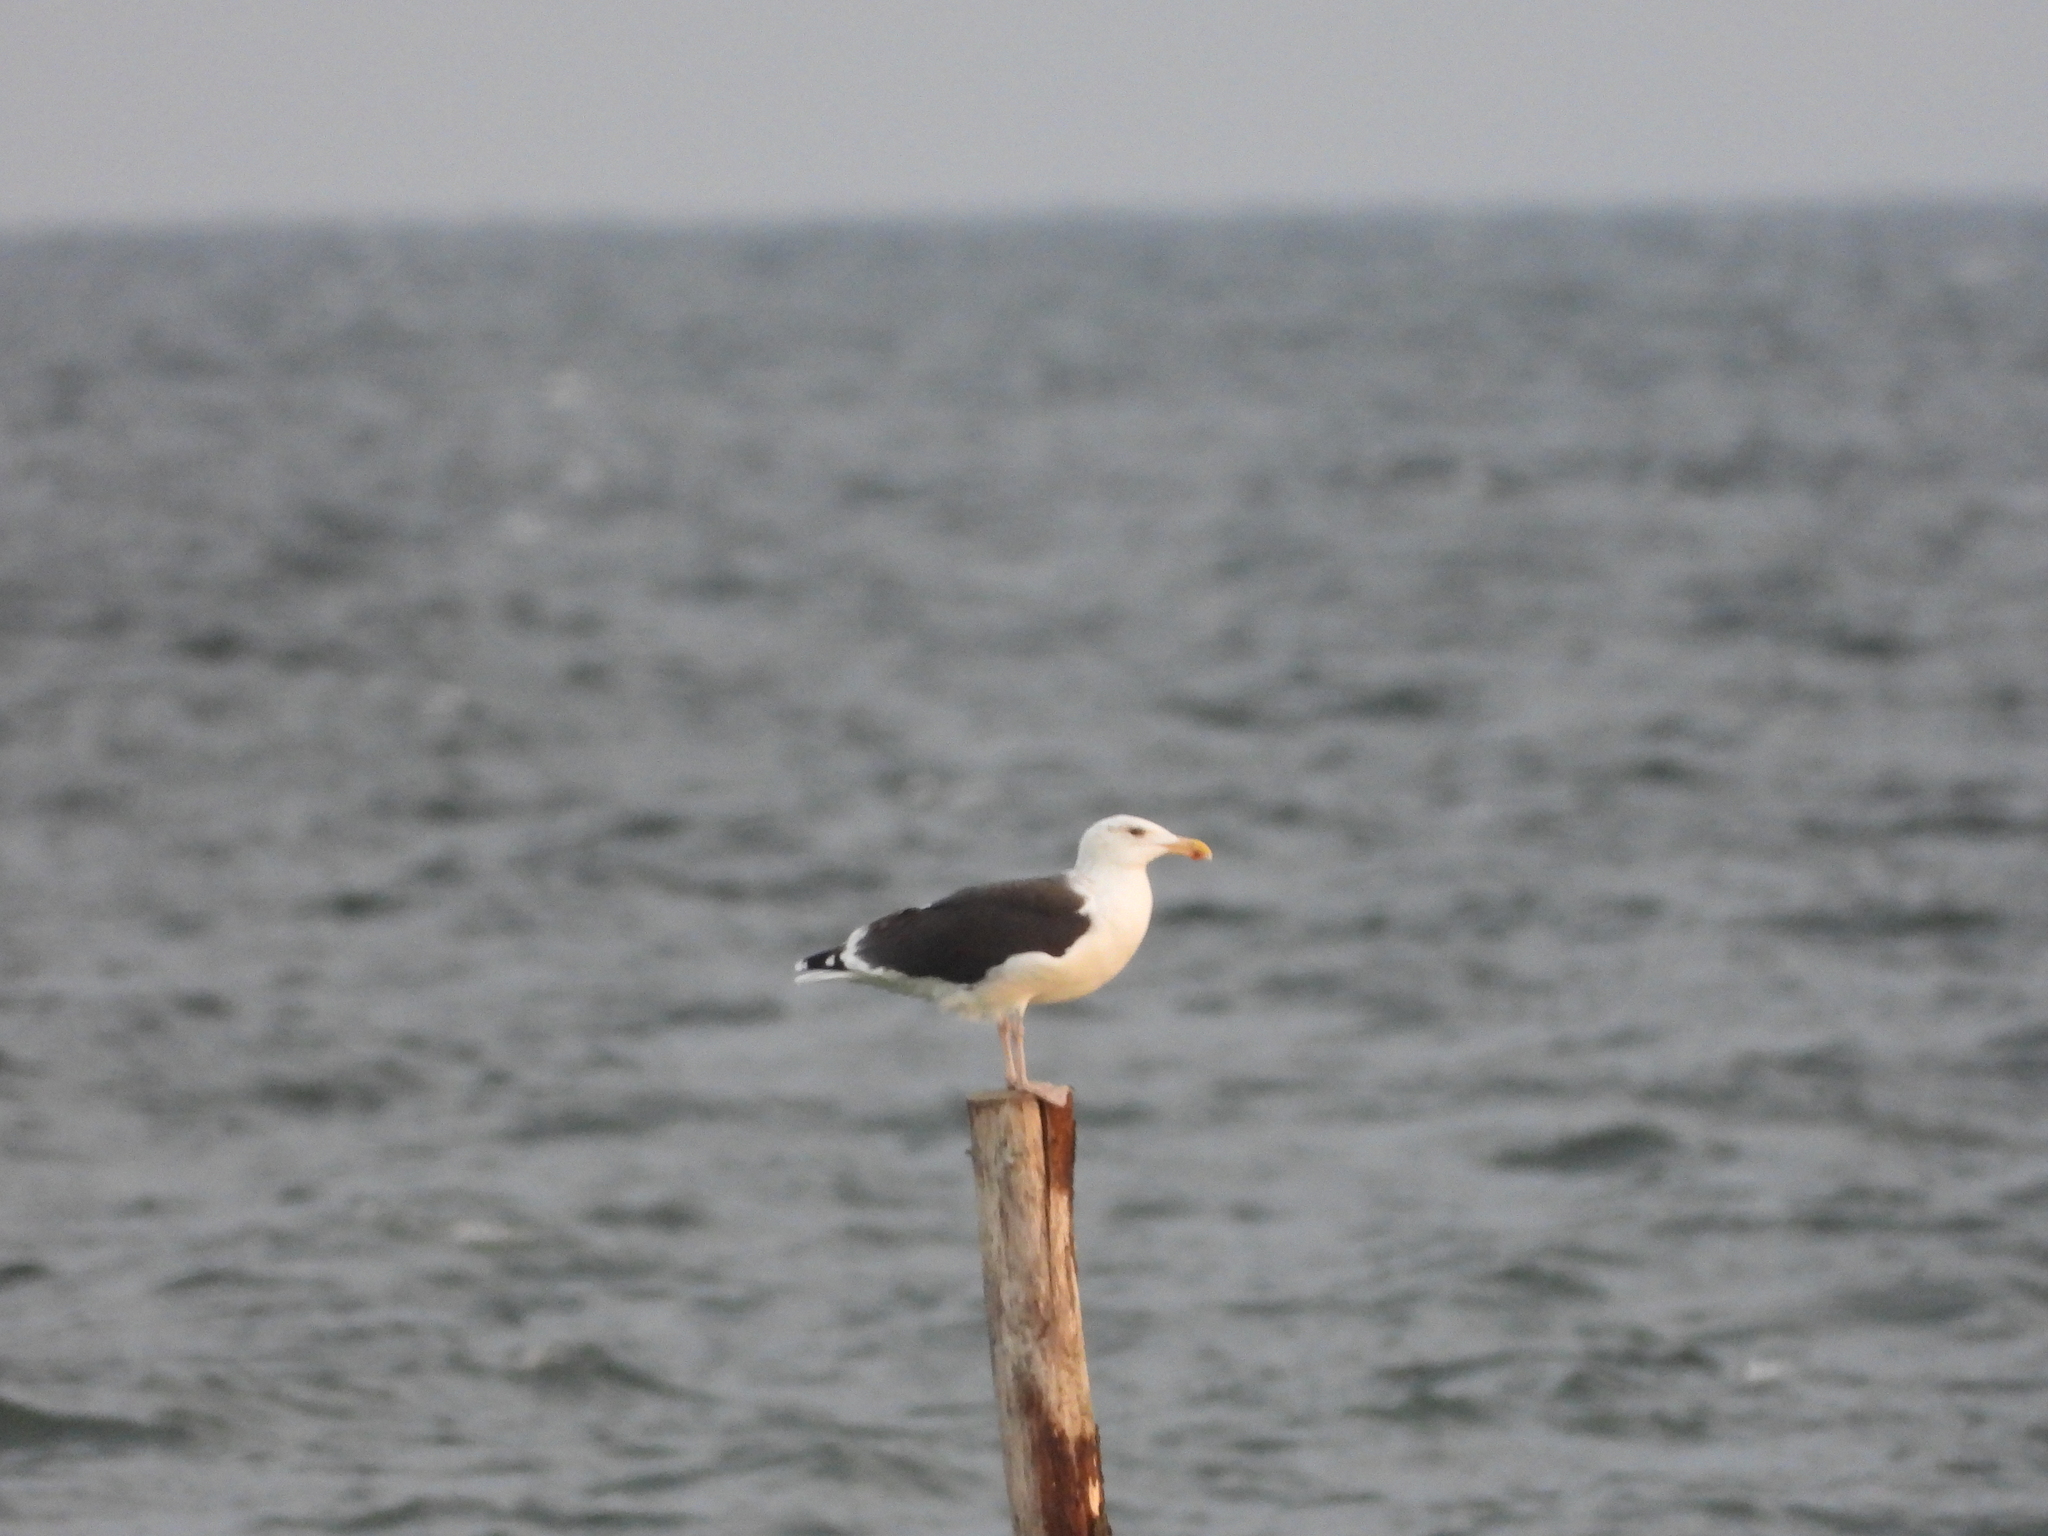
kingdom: Animalia
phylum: Chordata
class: Aves
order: Charadriiformes
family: Laridae
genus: Larus
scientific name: Larus marinus
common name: Great black-backed gull
